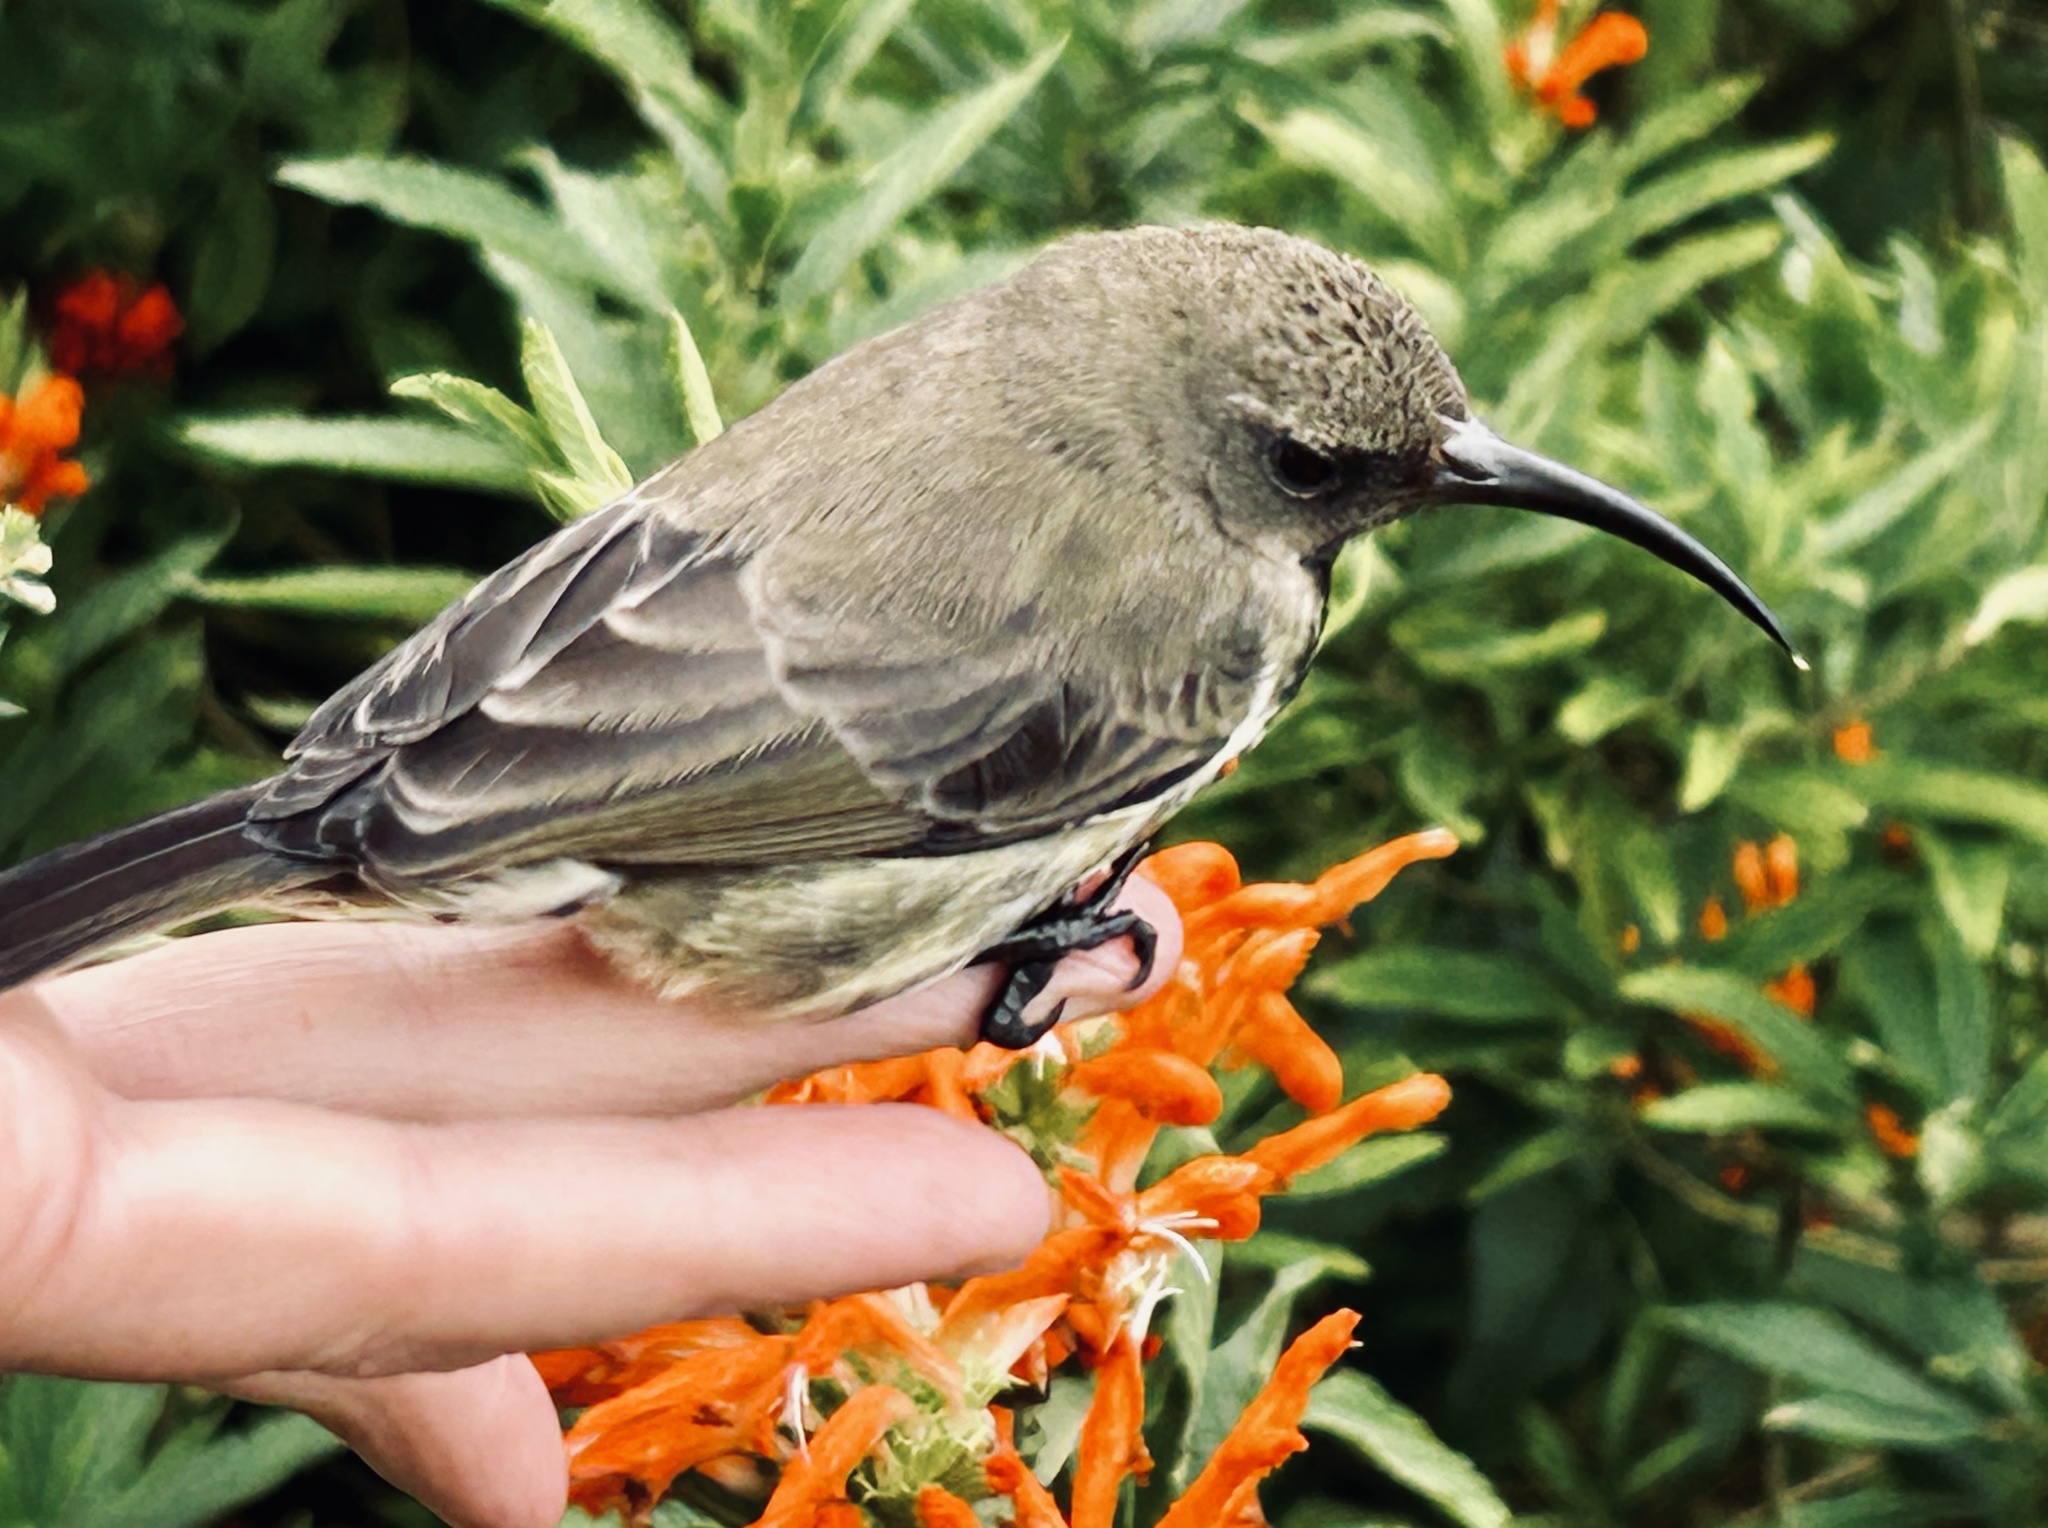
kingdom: Animalia
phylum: Chordata
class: Aves
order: Passeriformes
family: Nectariniidae
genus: Chalcomitra
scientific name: Chalcomitra amethystina
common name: Amethyst sunbird
